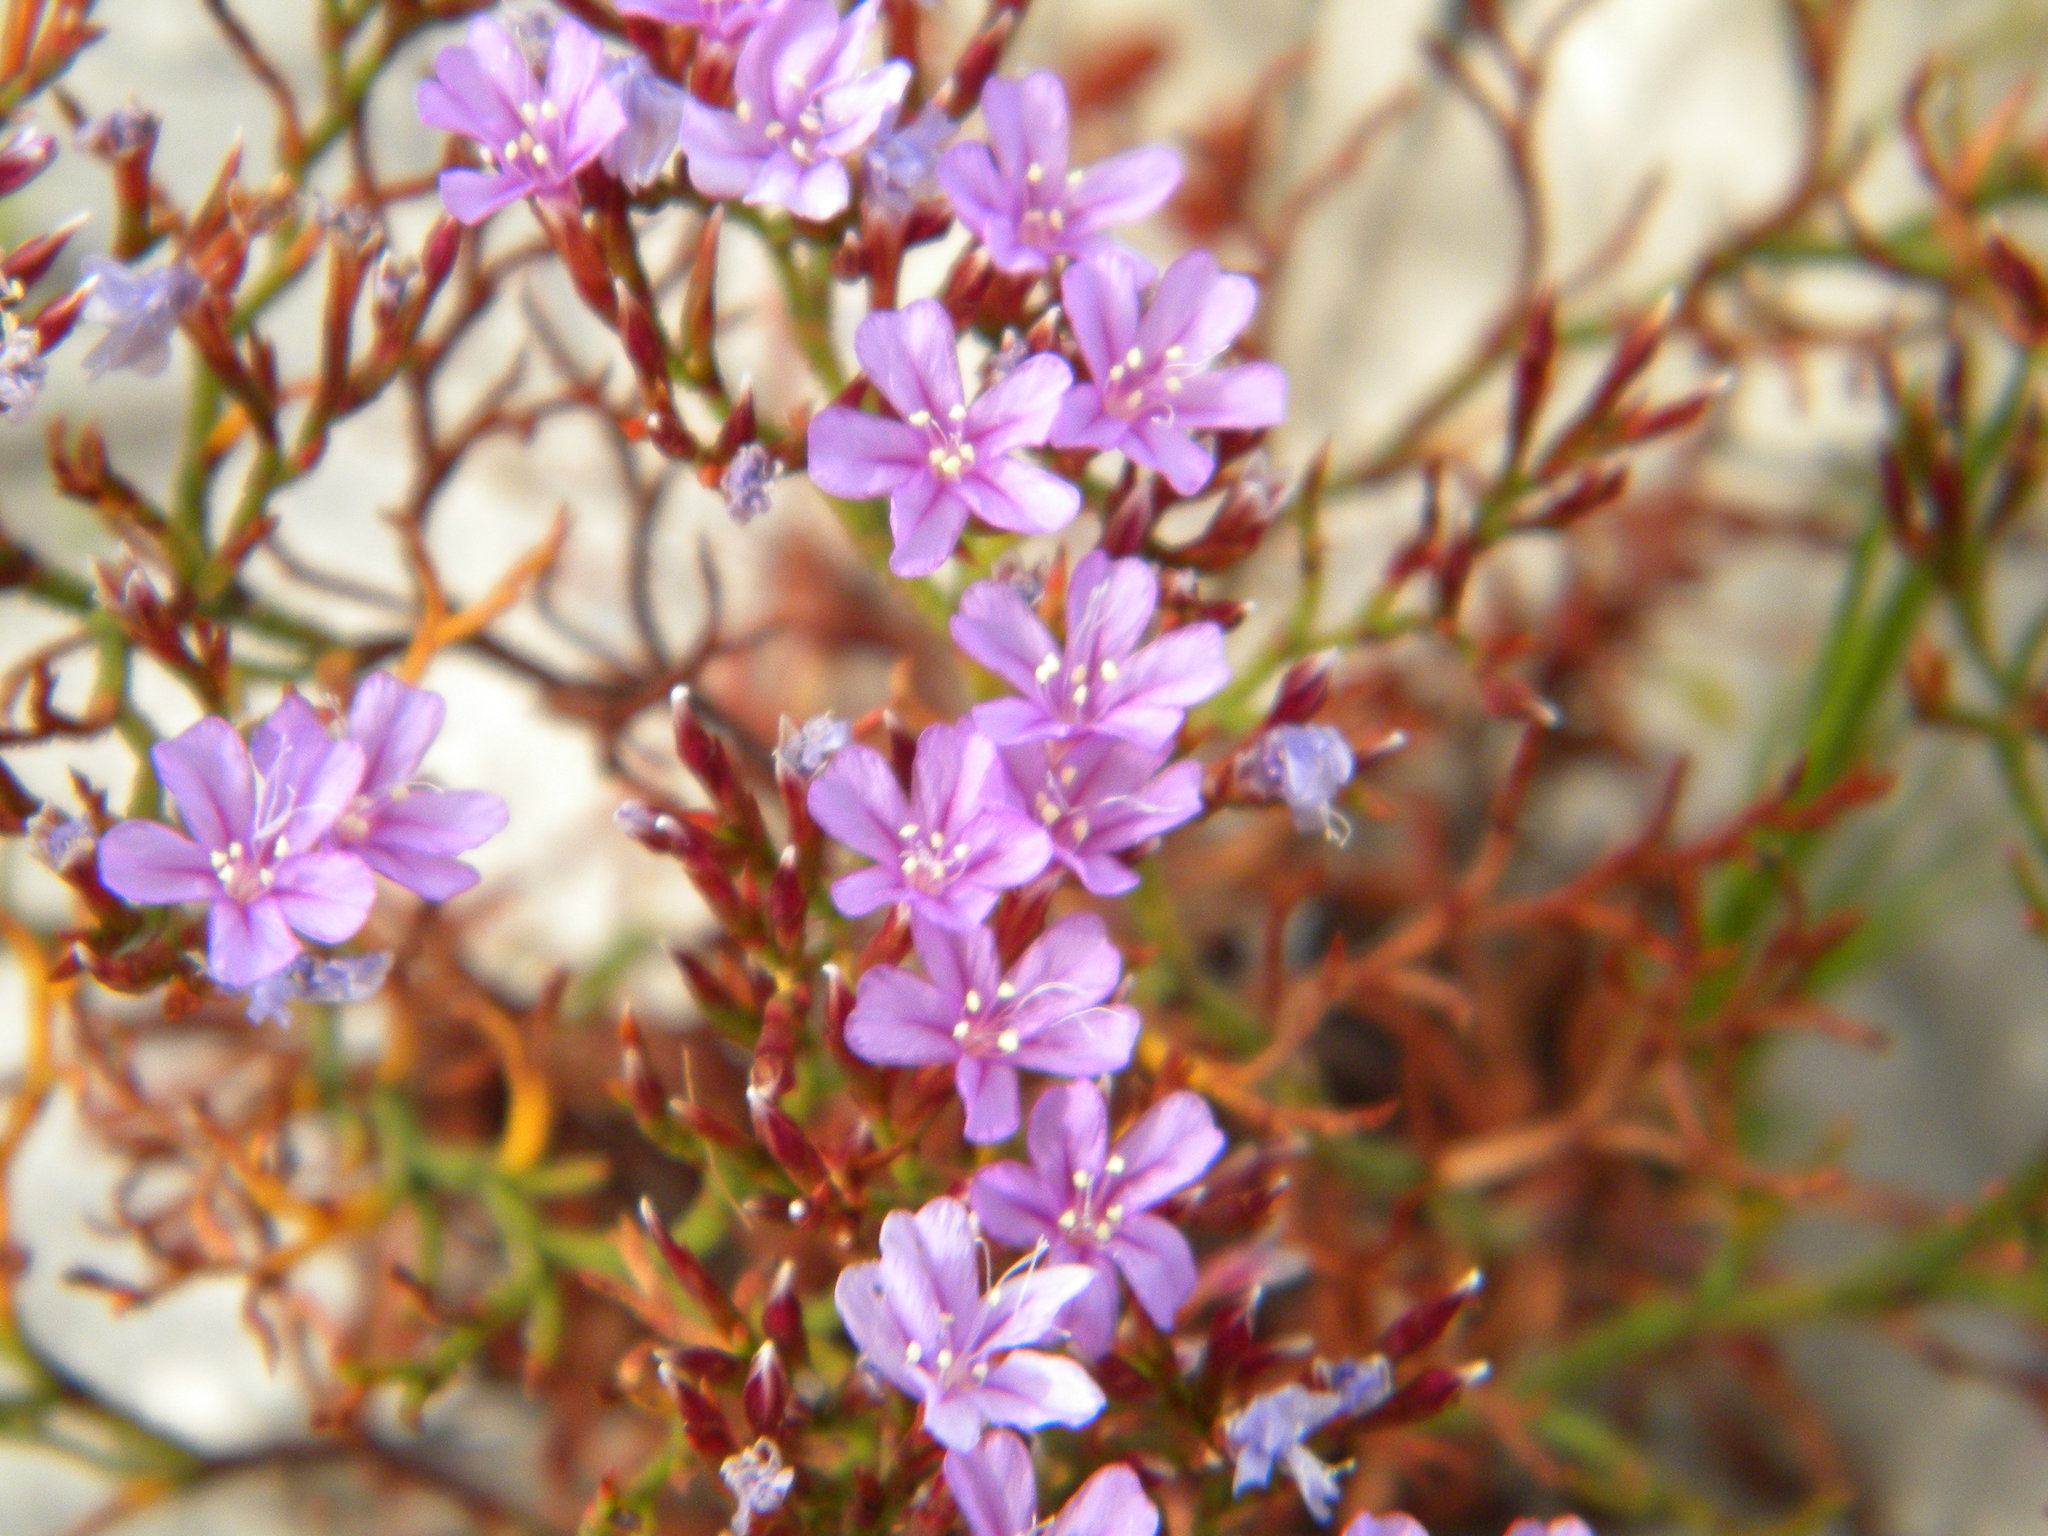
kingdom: Plantae
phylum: Tracheophyta
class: Magnoliopsida
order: Caryophyllales
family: Plumbaginaceae
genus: Limonium
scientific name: Limonium scabrum
